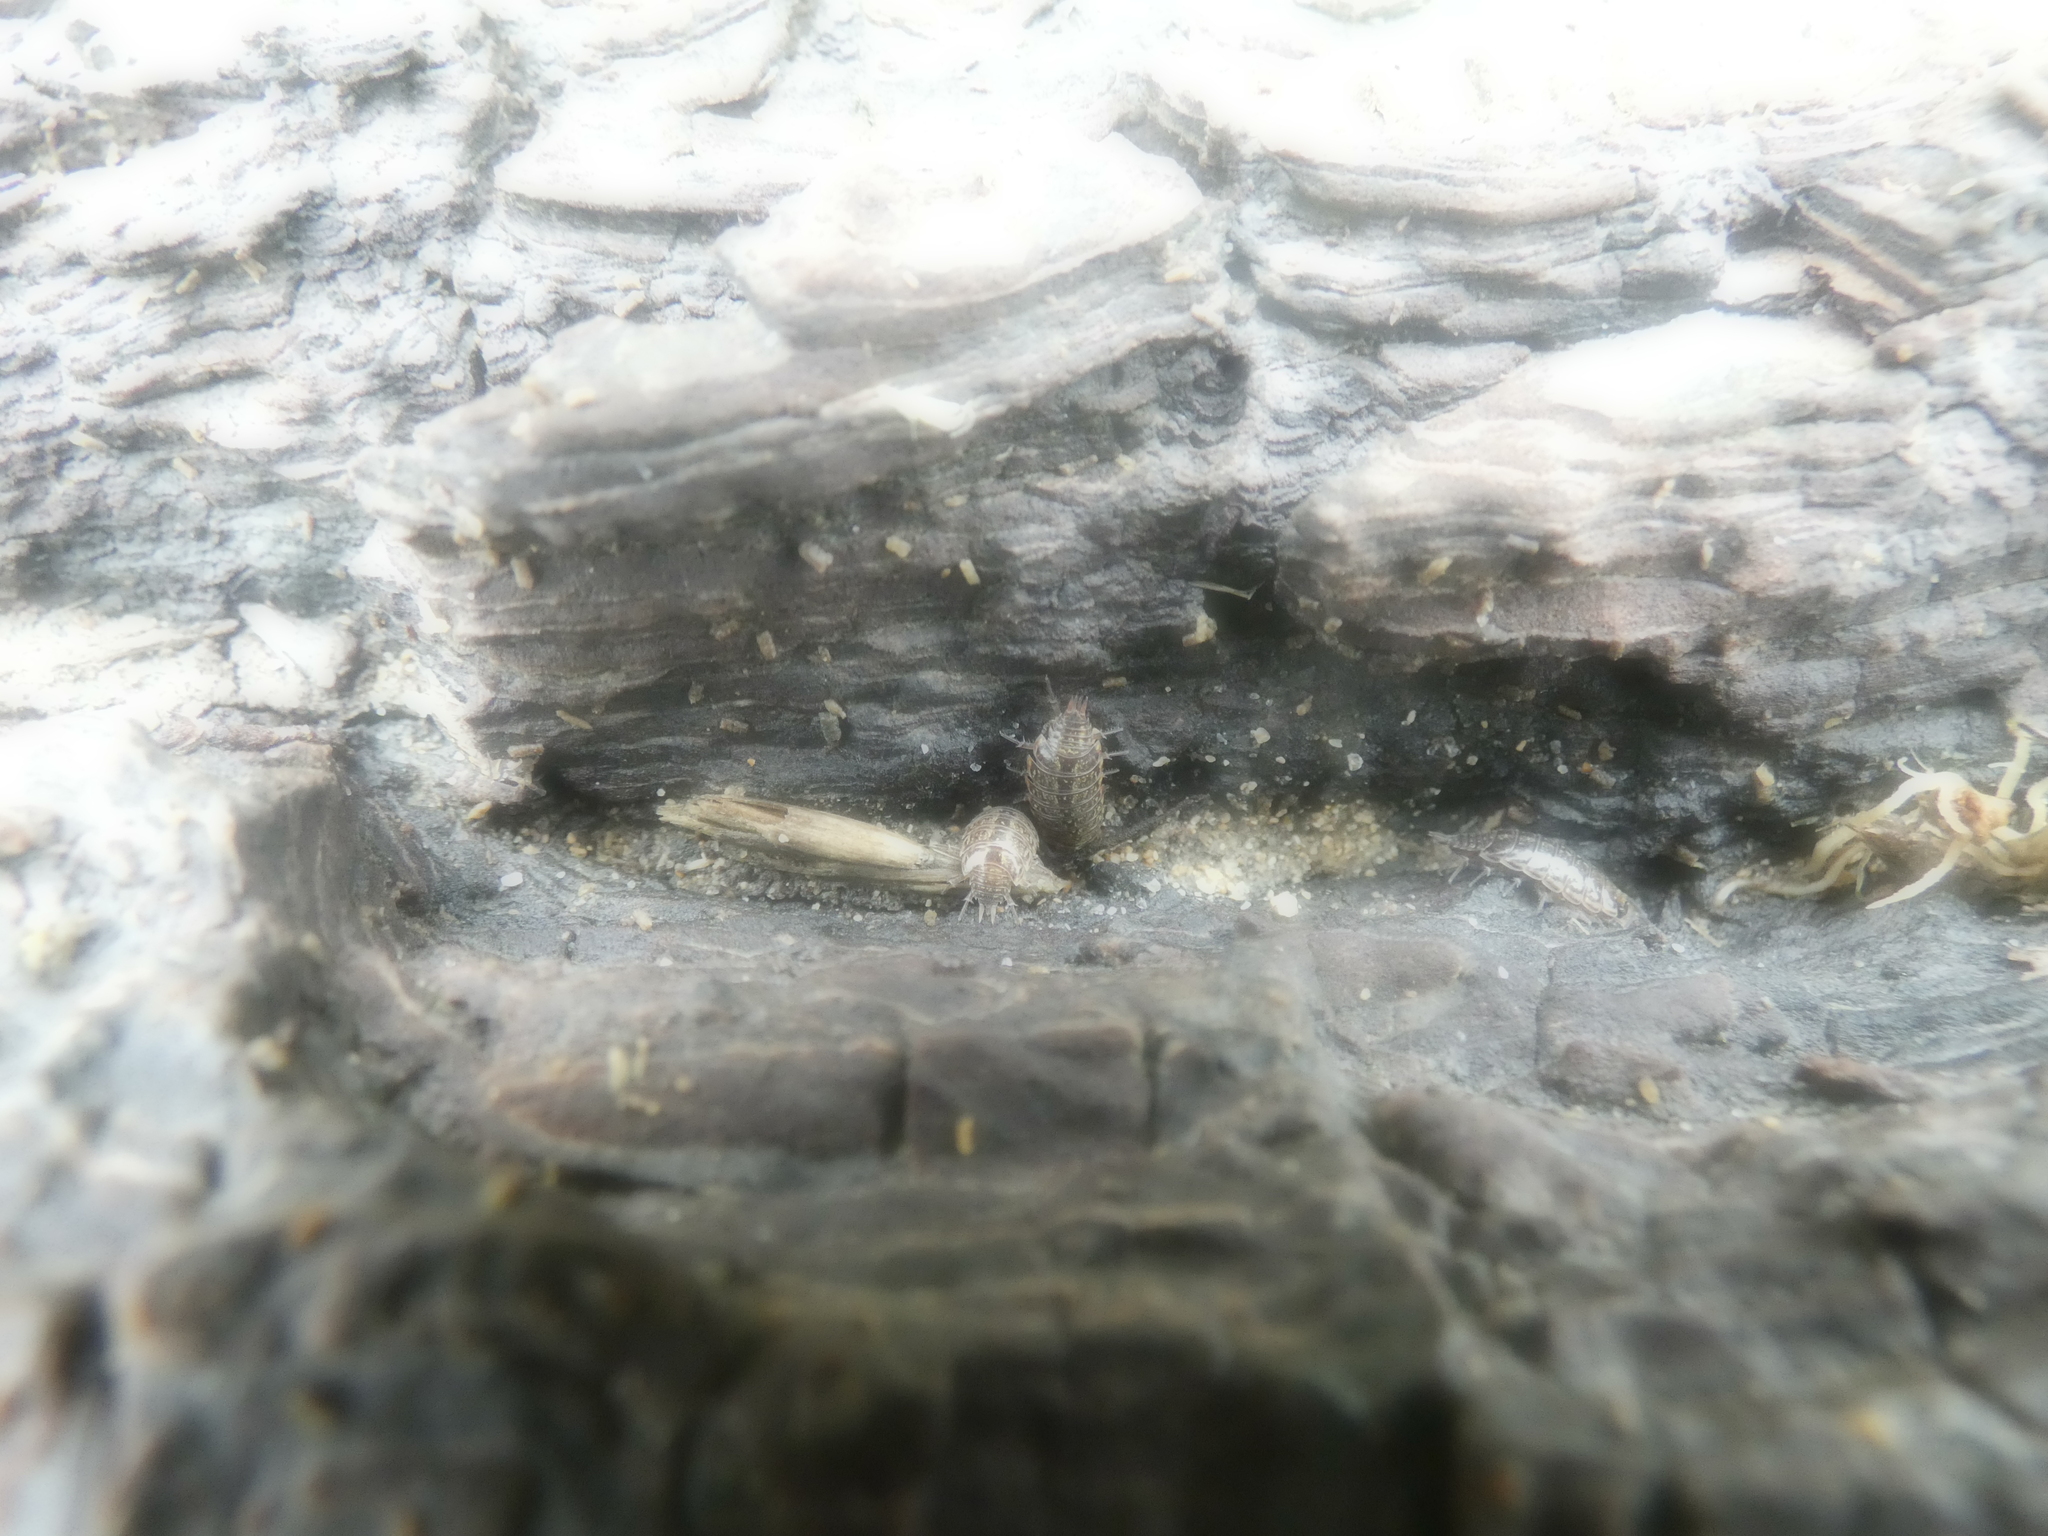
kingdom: Animalia
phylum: Arthropoda
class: Malacostraca
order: Isopoda
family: Philosciidae
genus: Philoscia
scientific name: Philoscia muscorum
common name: Common striped woodlouse
